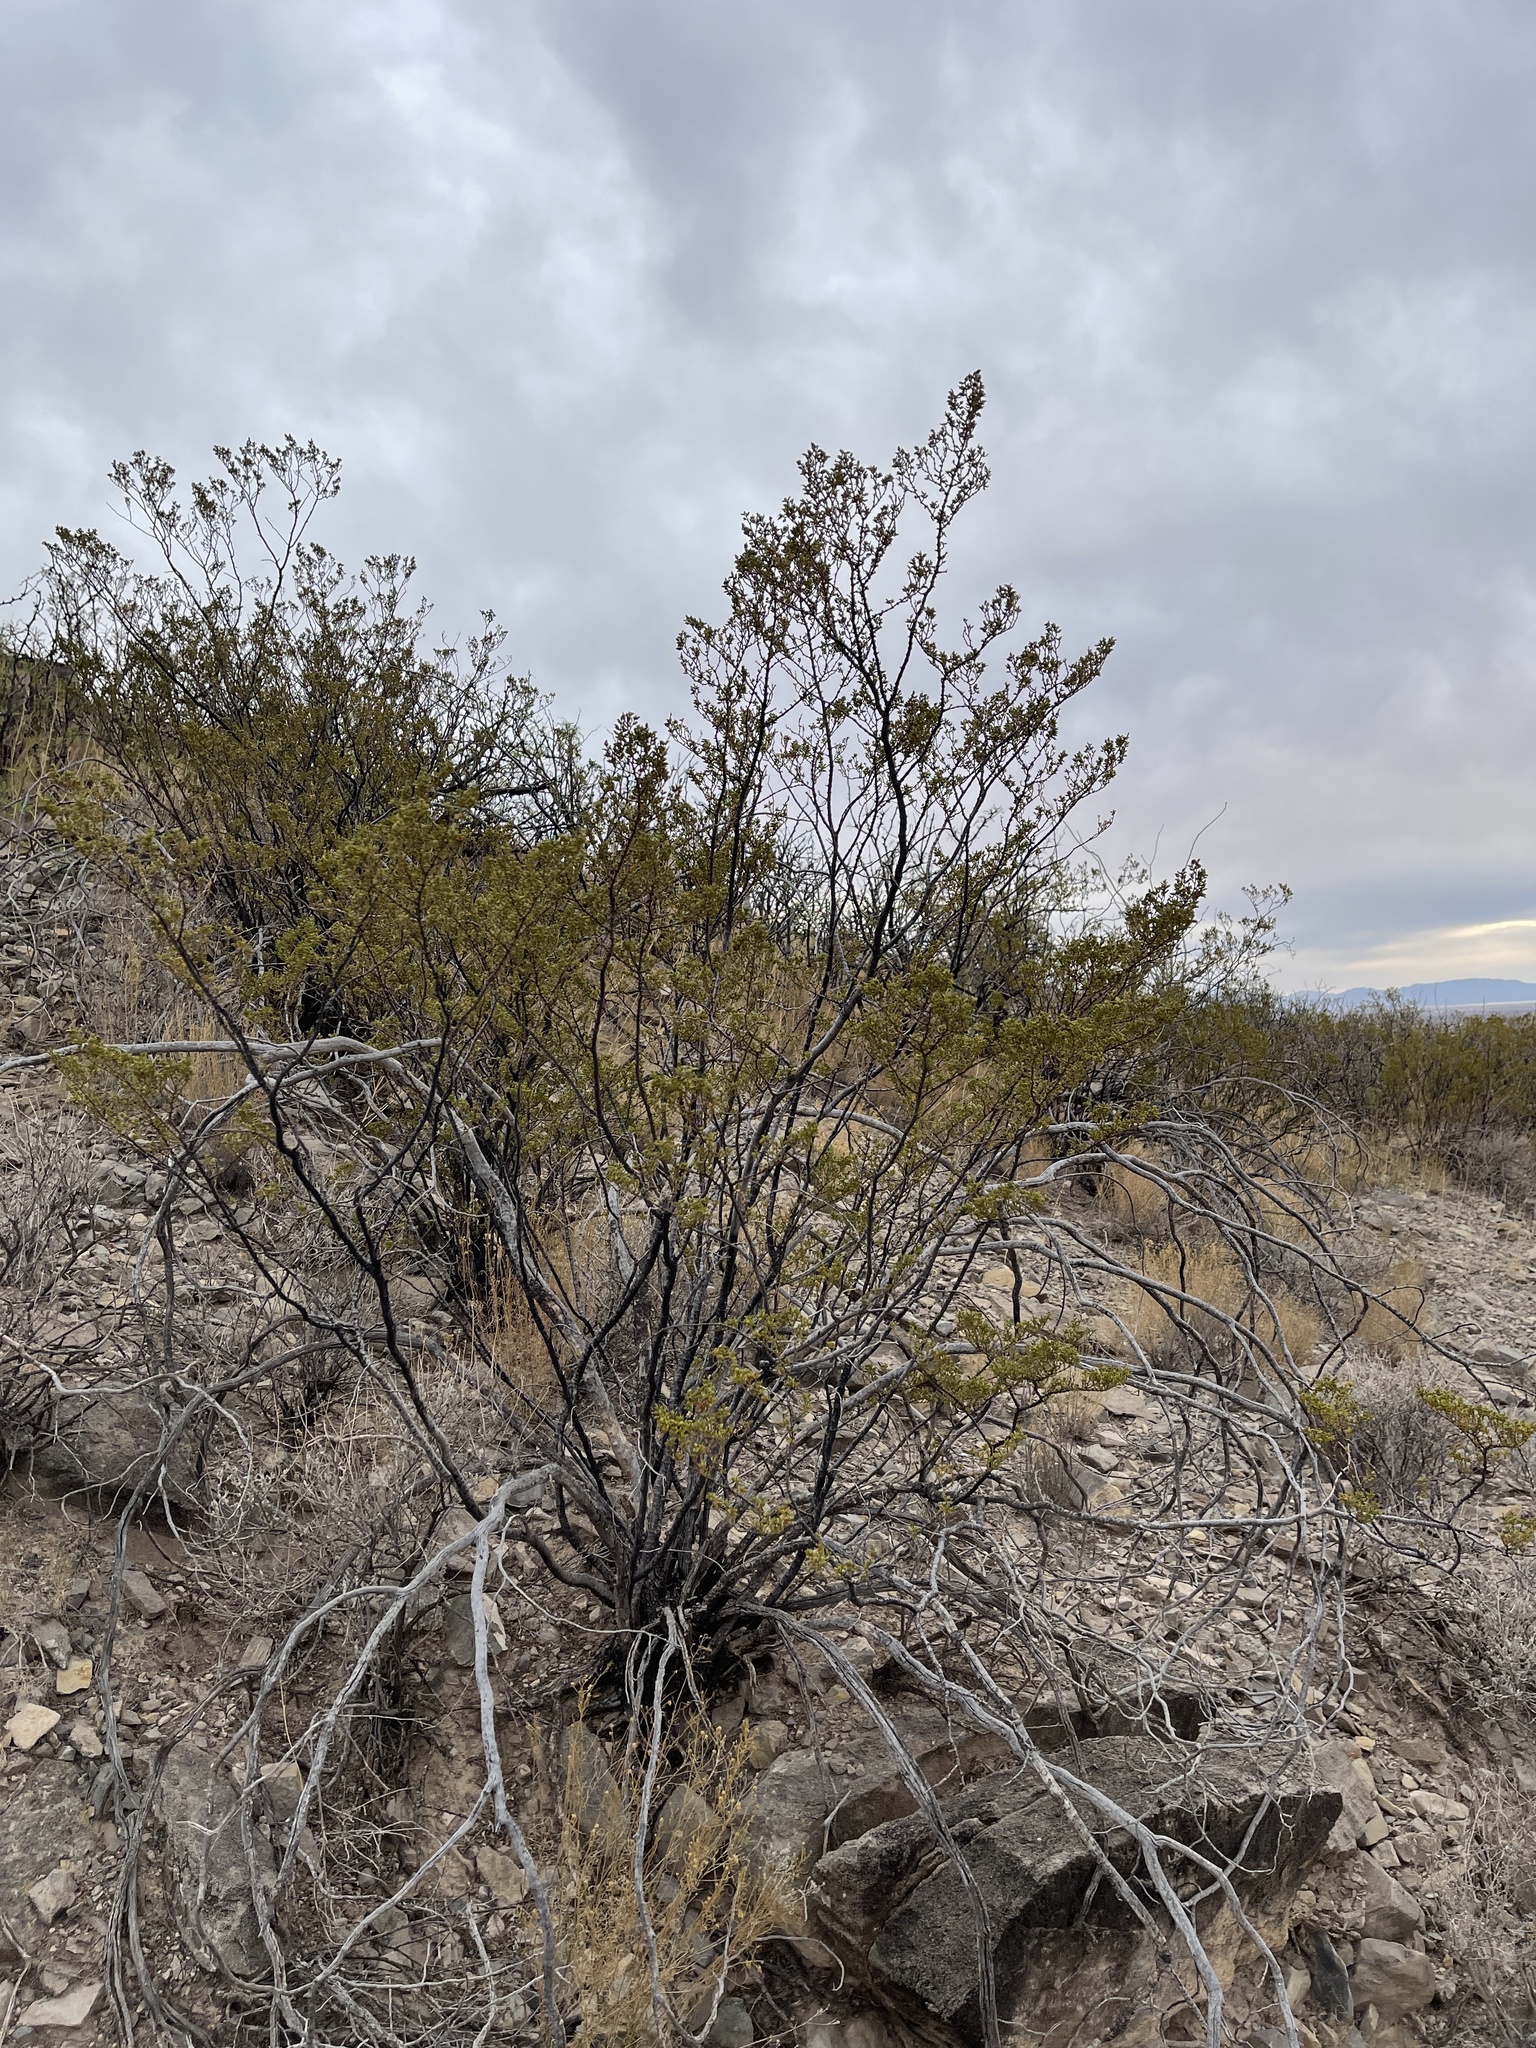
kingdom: Plantae
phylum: Tracheophyta
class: Magnoliopsida
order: Zygophyllales
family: Zygophyllaceae
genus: Larrea
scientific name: Larrea tridentata
